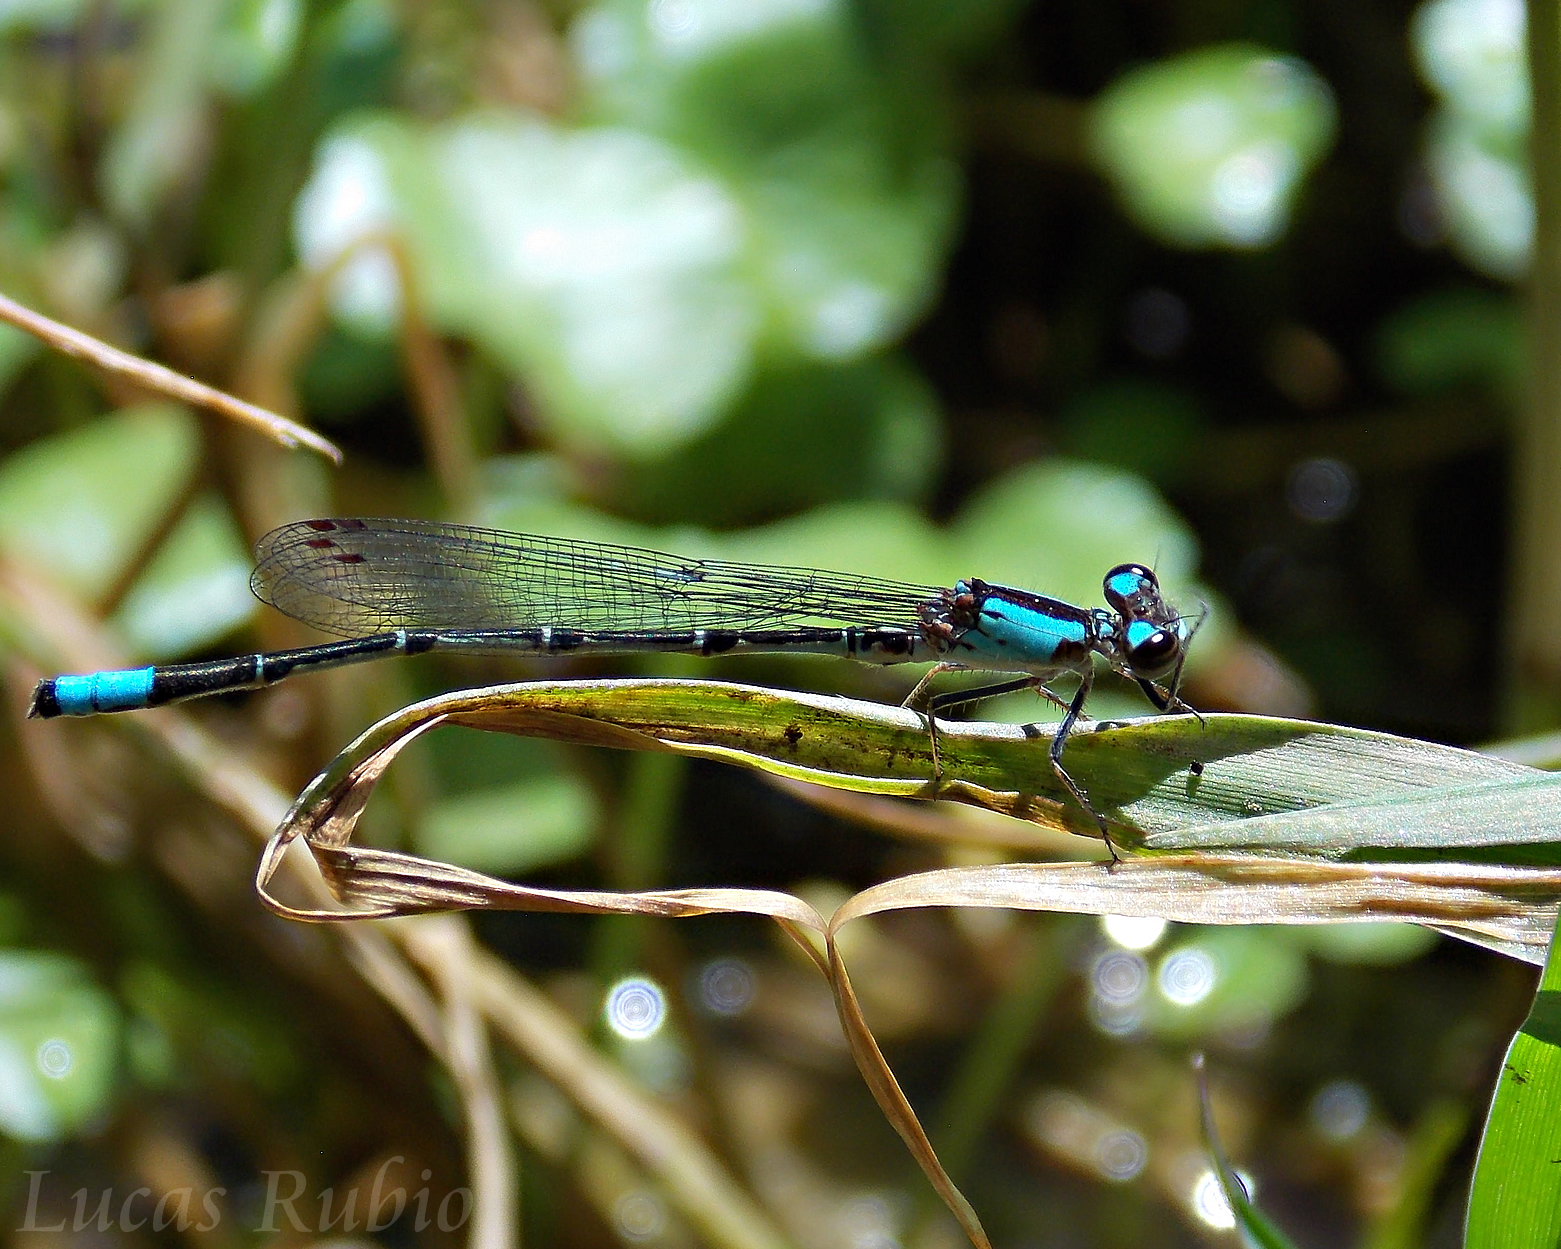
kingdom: Animalia
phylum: Arthropoda
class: Insecta
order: Odonata
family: Coenagrionidae
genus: Oxyagrion
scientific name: Oxyagrion ablutum
